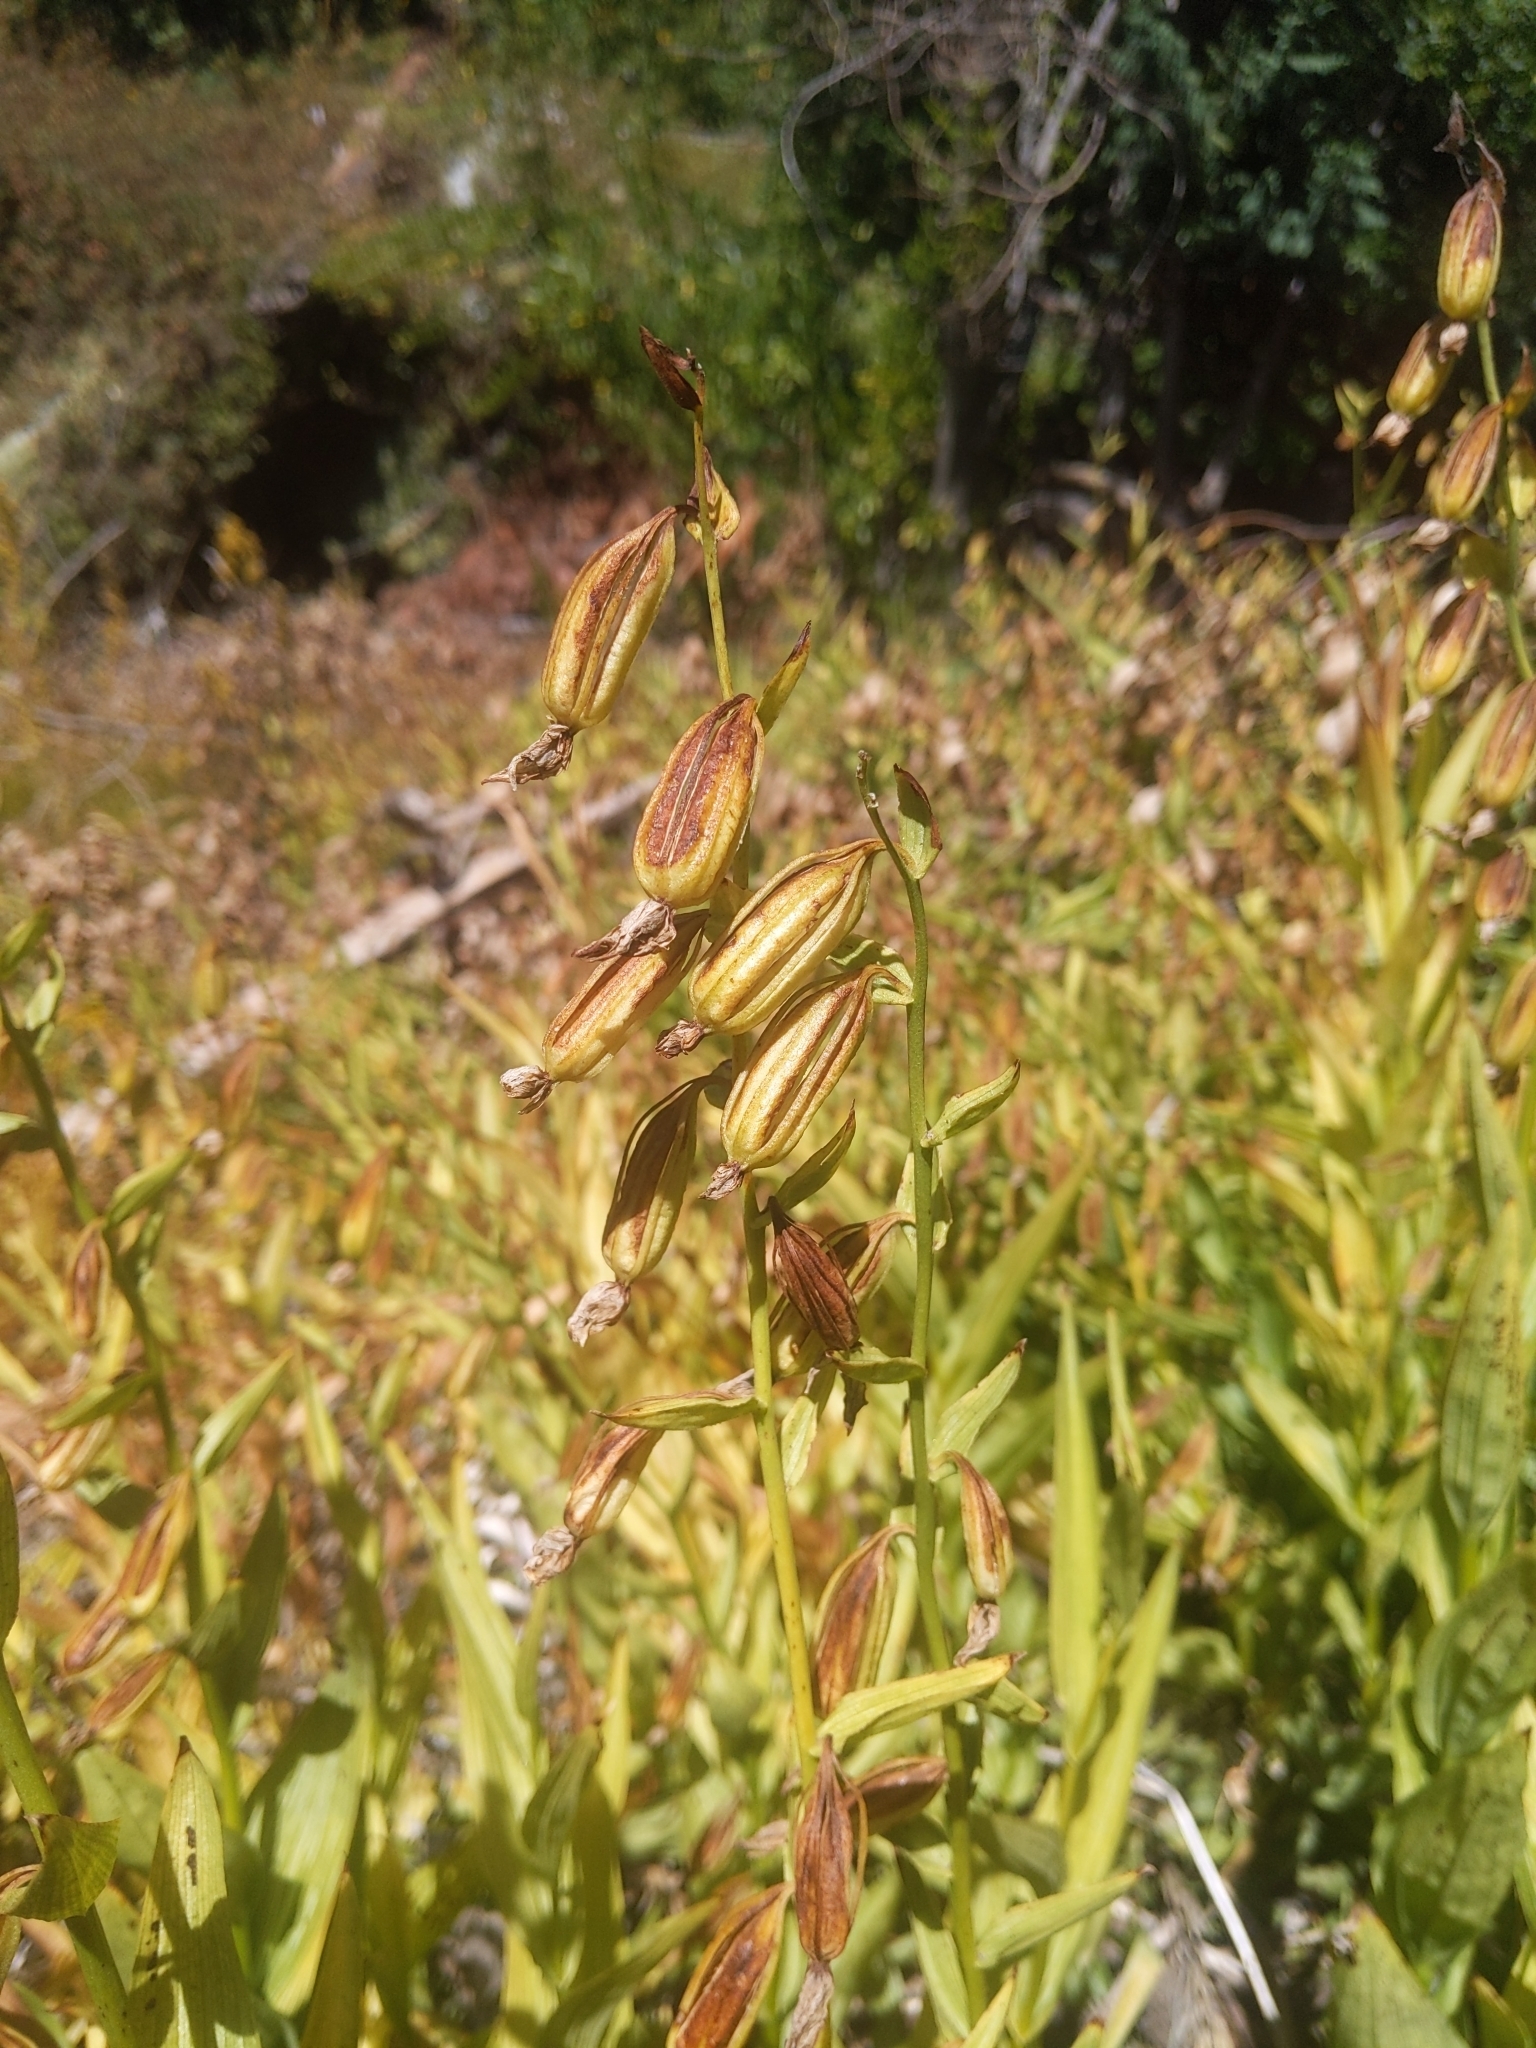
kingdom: Plantae
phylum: Tracheophyta
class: Liliopsida
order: Asparagales
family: Orchidaceae
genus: Epipactis
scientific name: Epipactis gigantea
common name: Chatterbox
